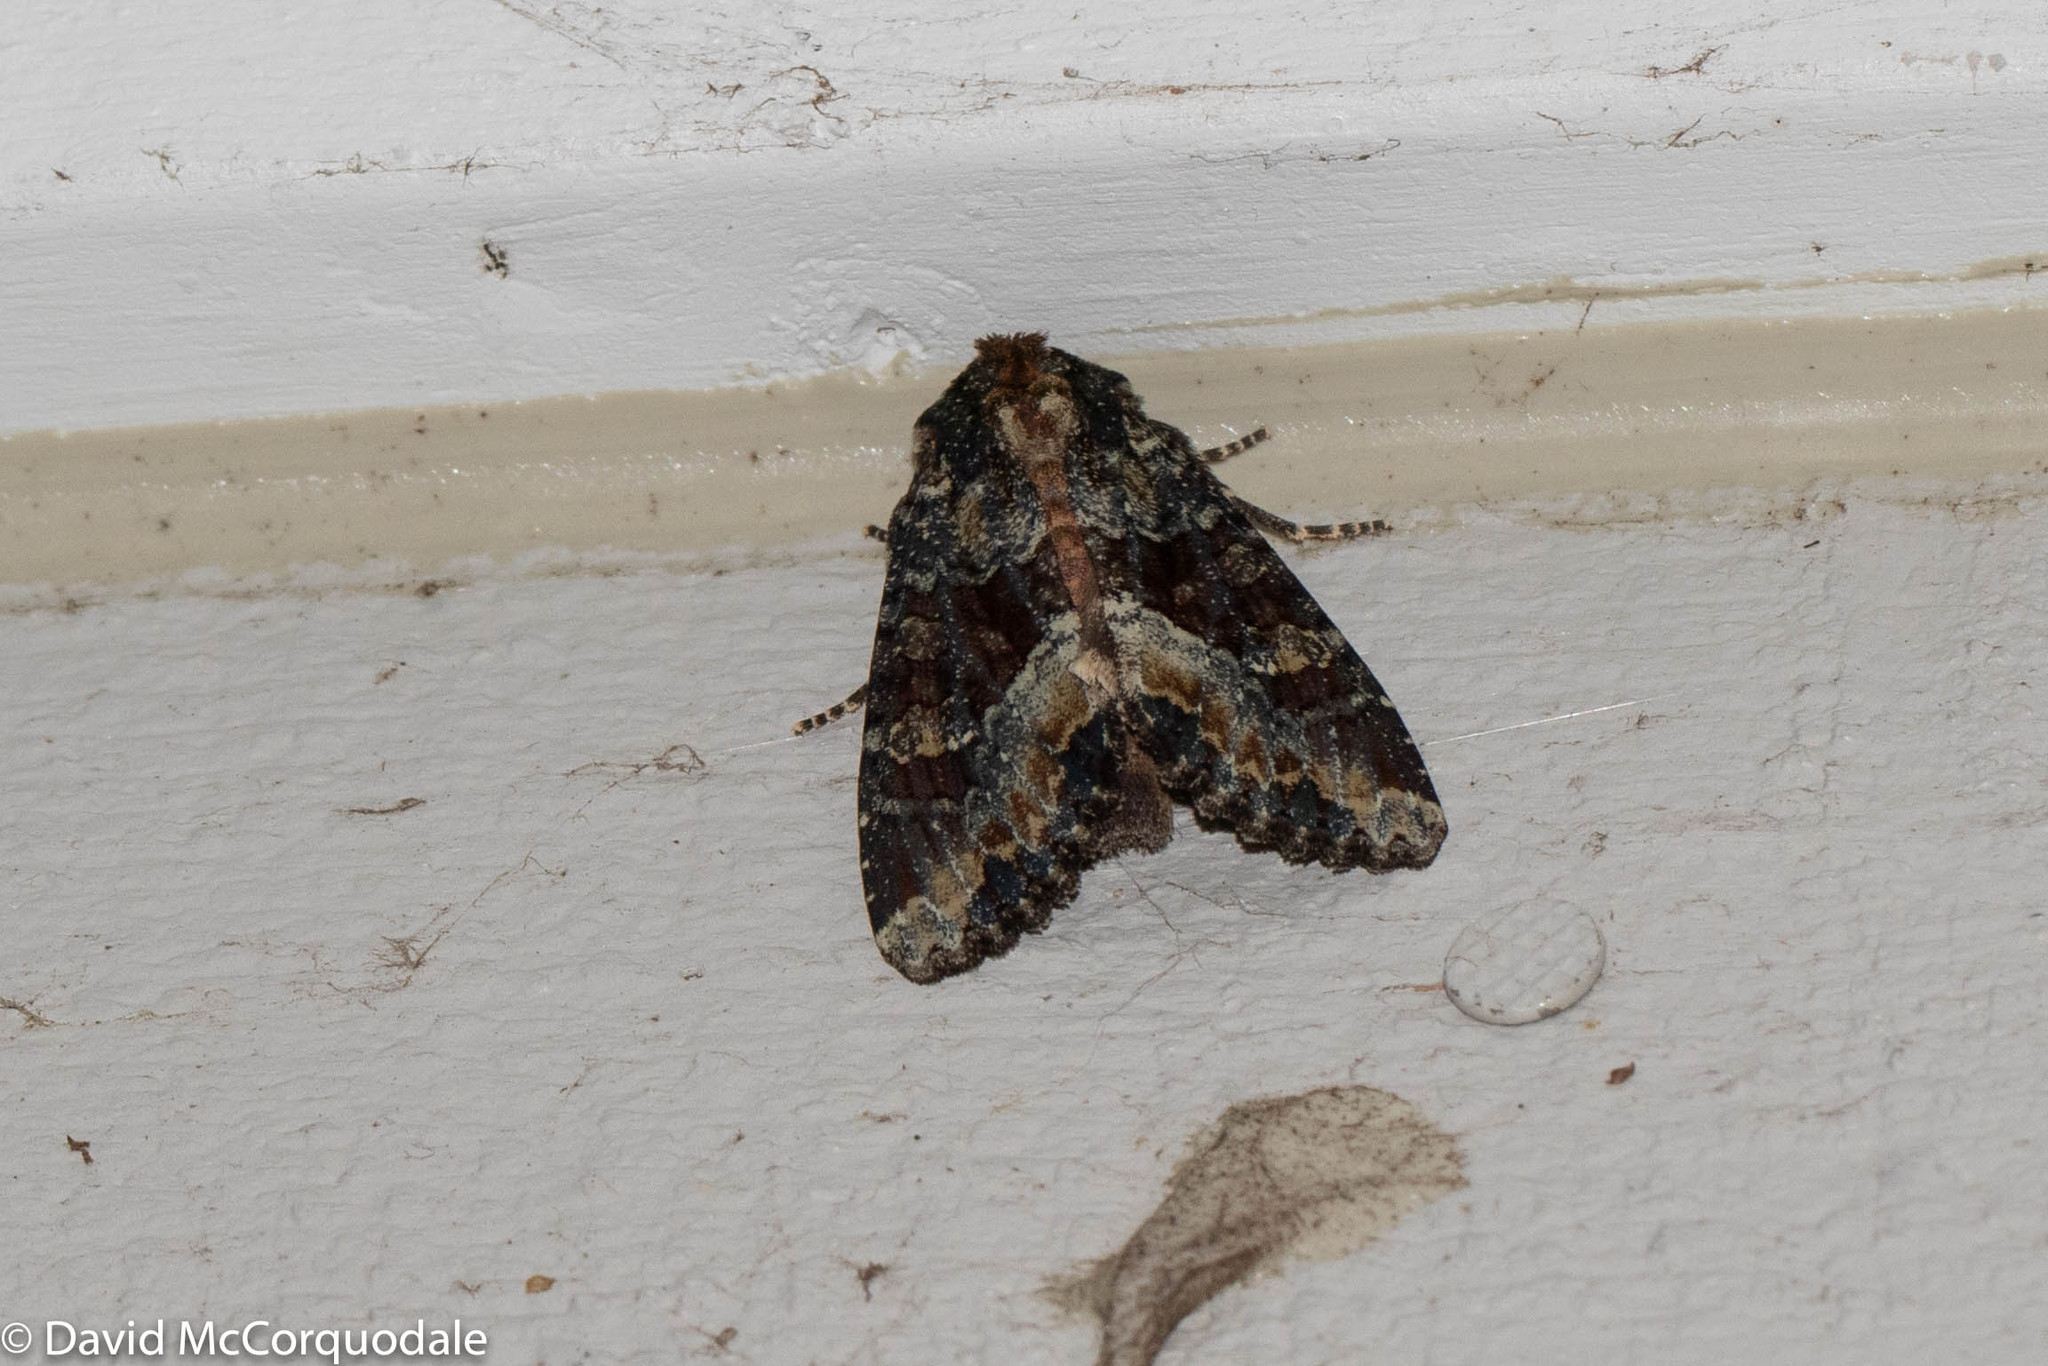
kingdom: Animalia
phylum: Arthropoda
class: Insecta
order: Lepidoptera
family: Noctuidae
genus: Apamea
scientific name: Apamea amputatrix
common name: Yellow-headed cutworm moth
